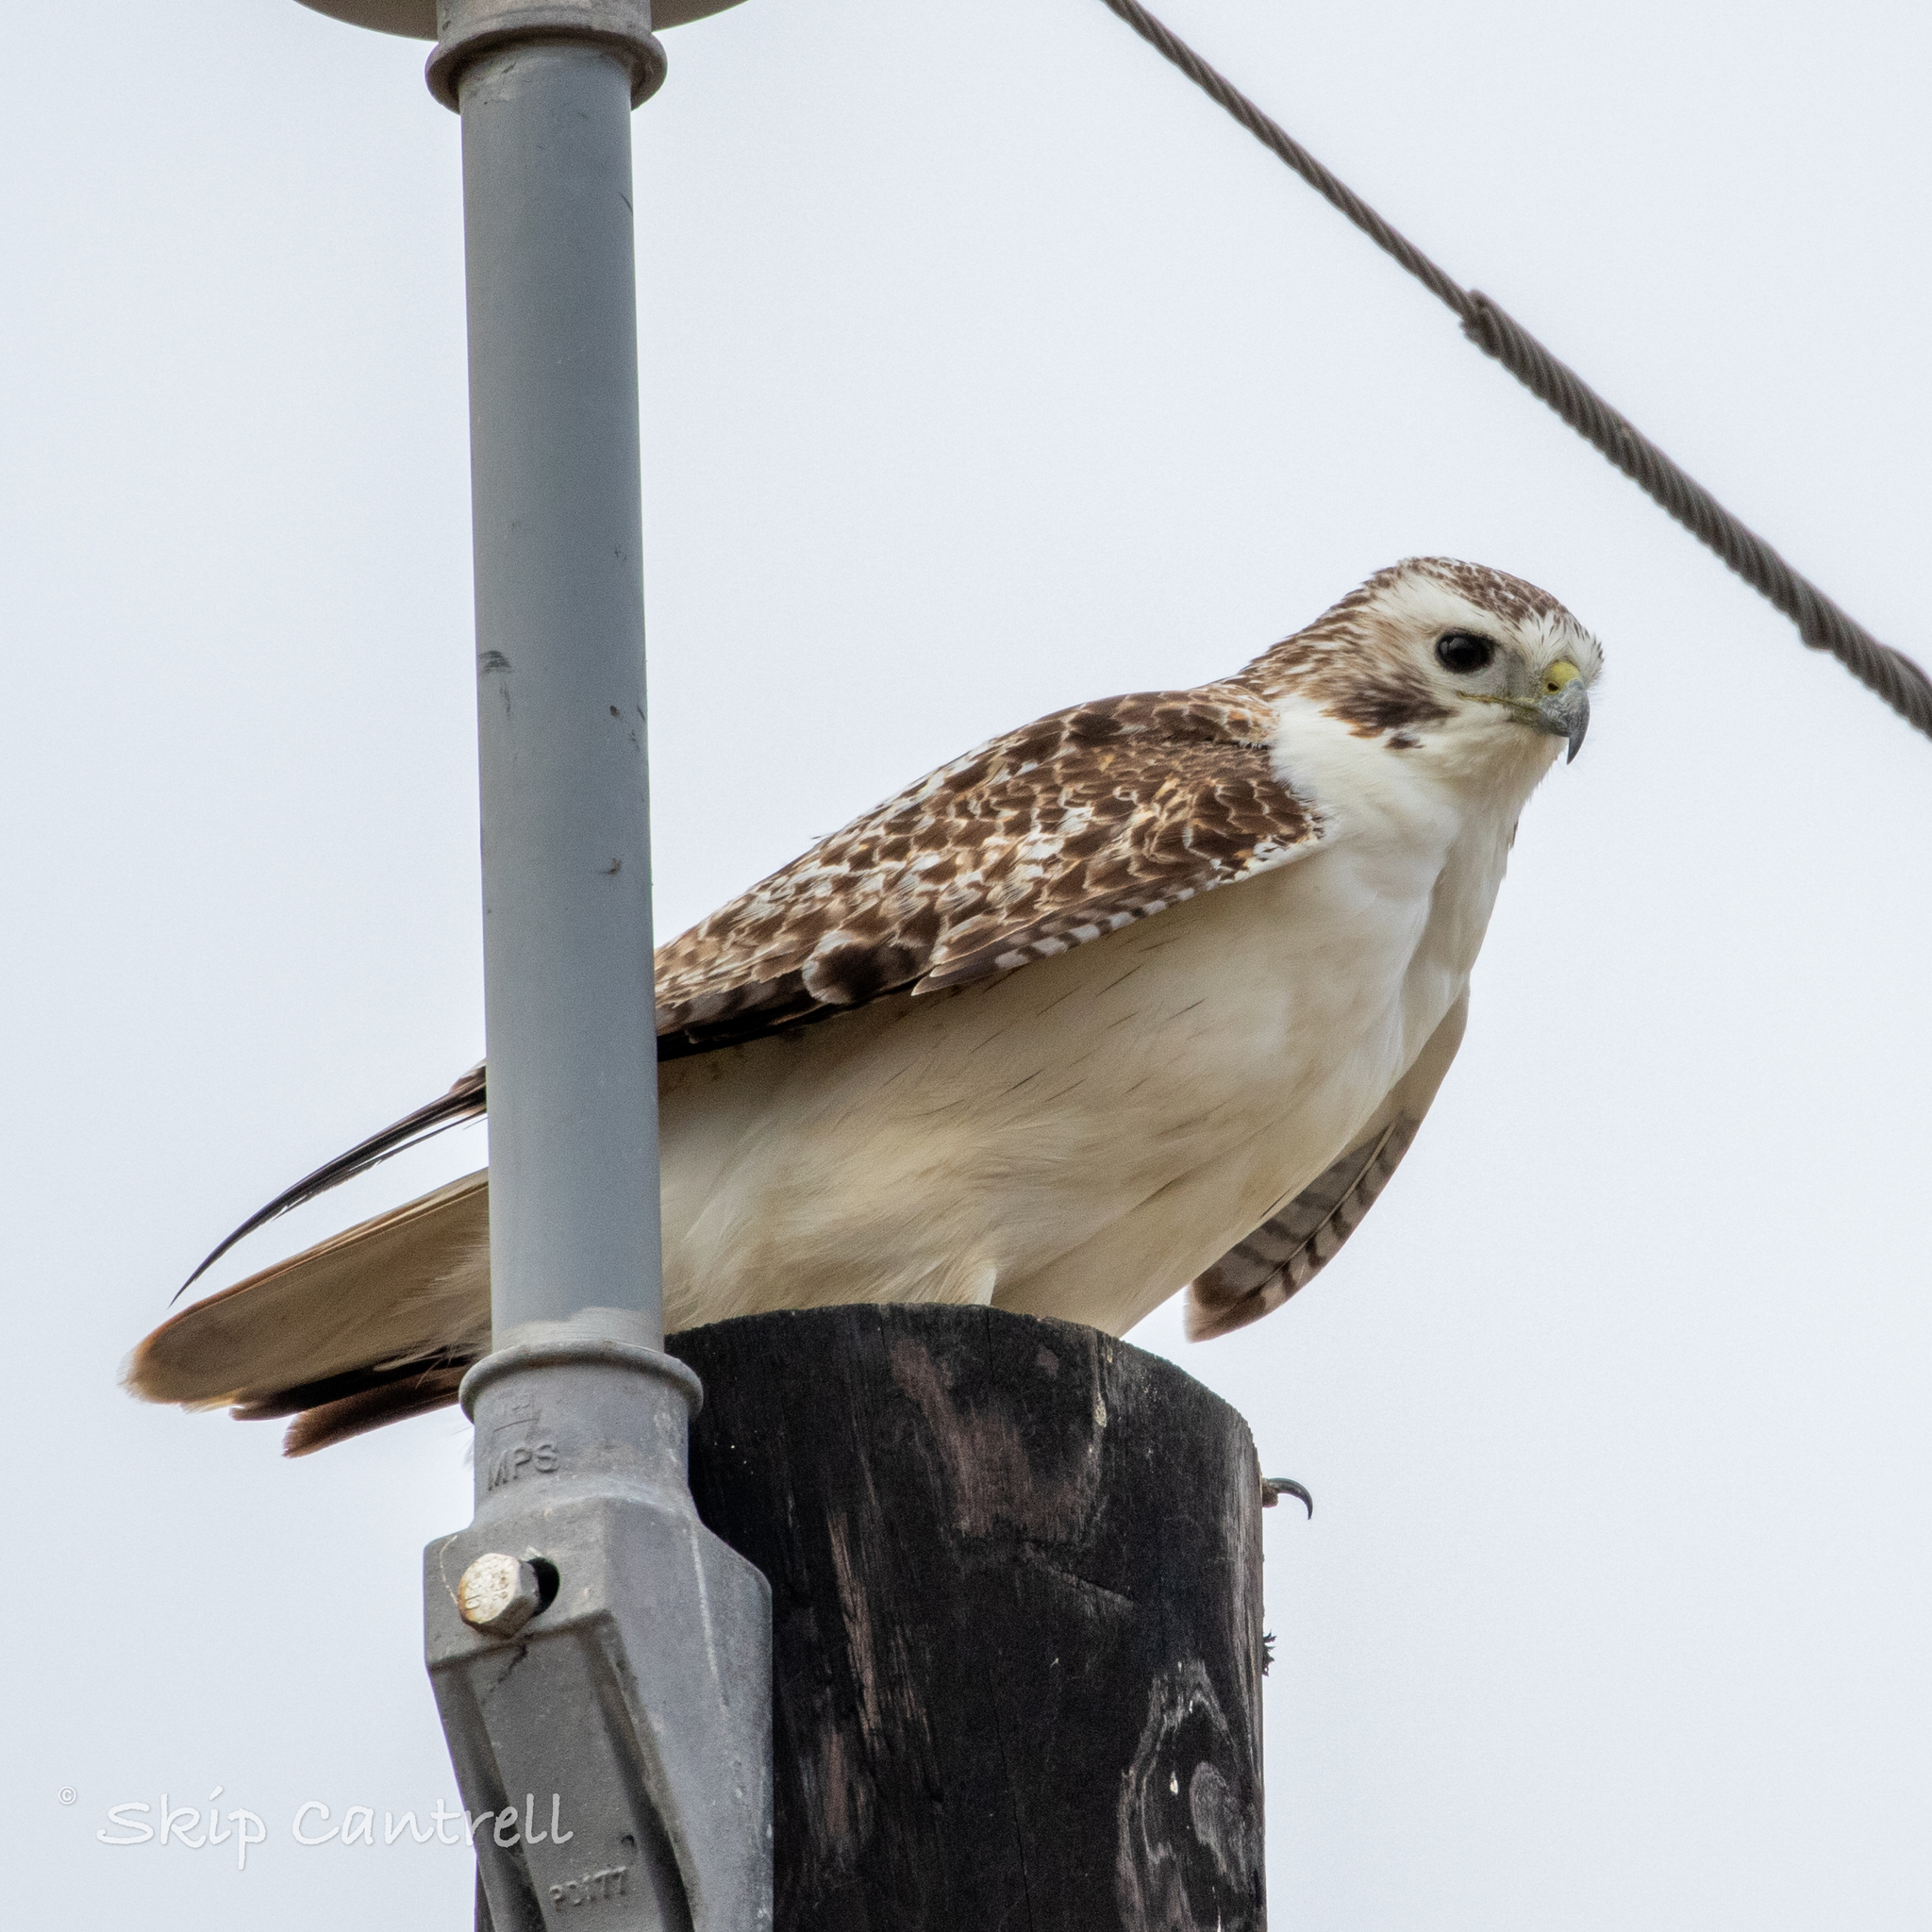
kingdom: Animalia
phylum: Chordata
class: Aves
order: Accipitriformes
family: Accipitridae
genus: Buteo
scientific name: Buteo jamaicensis
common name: Red-tailed hawk
